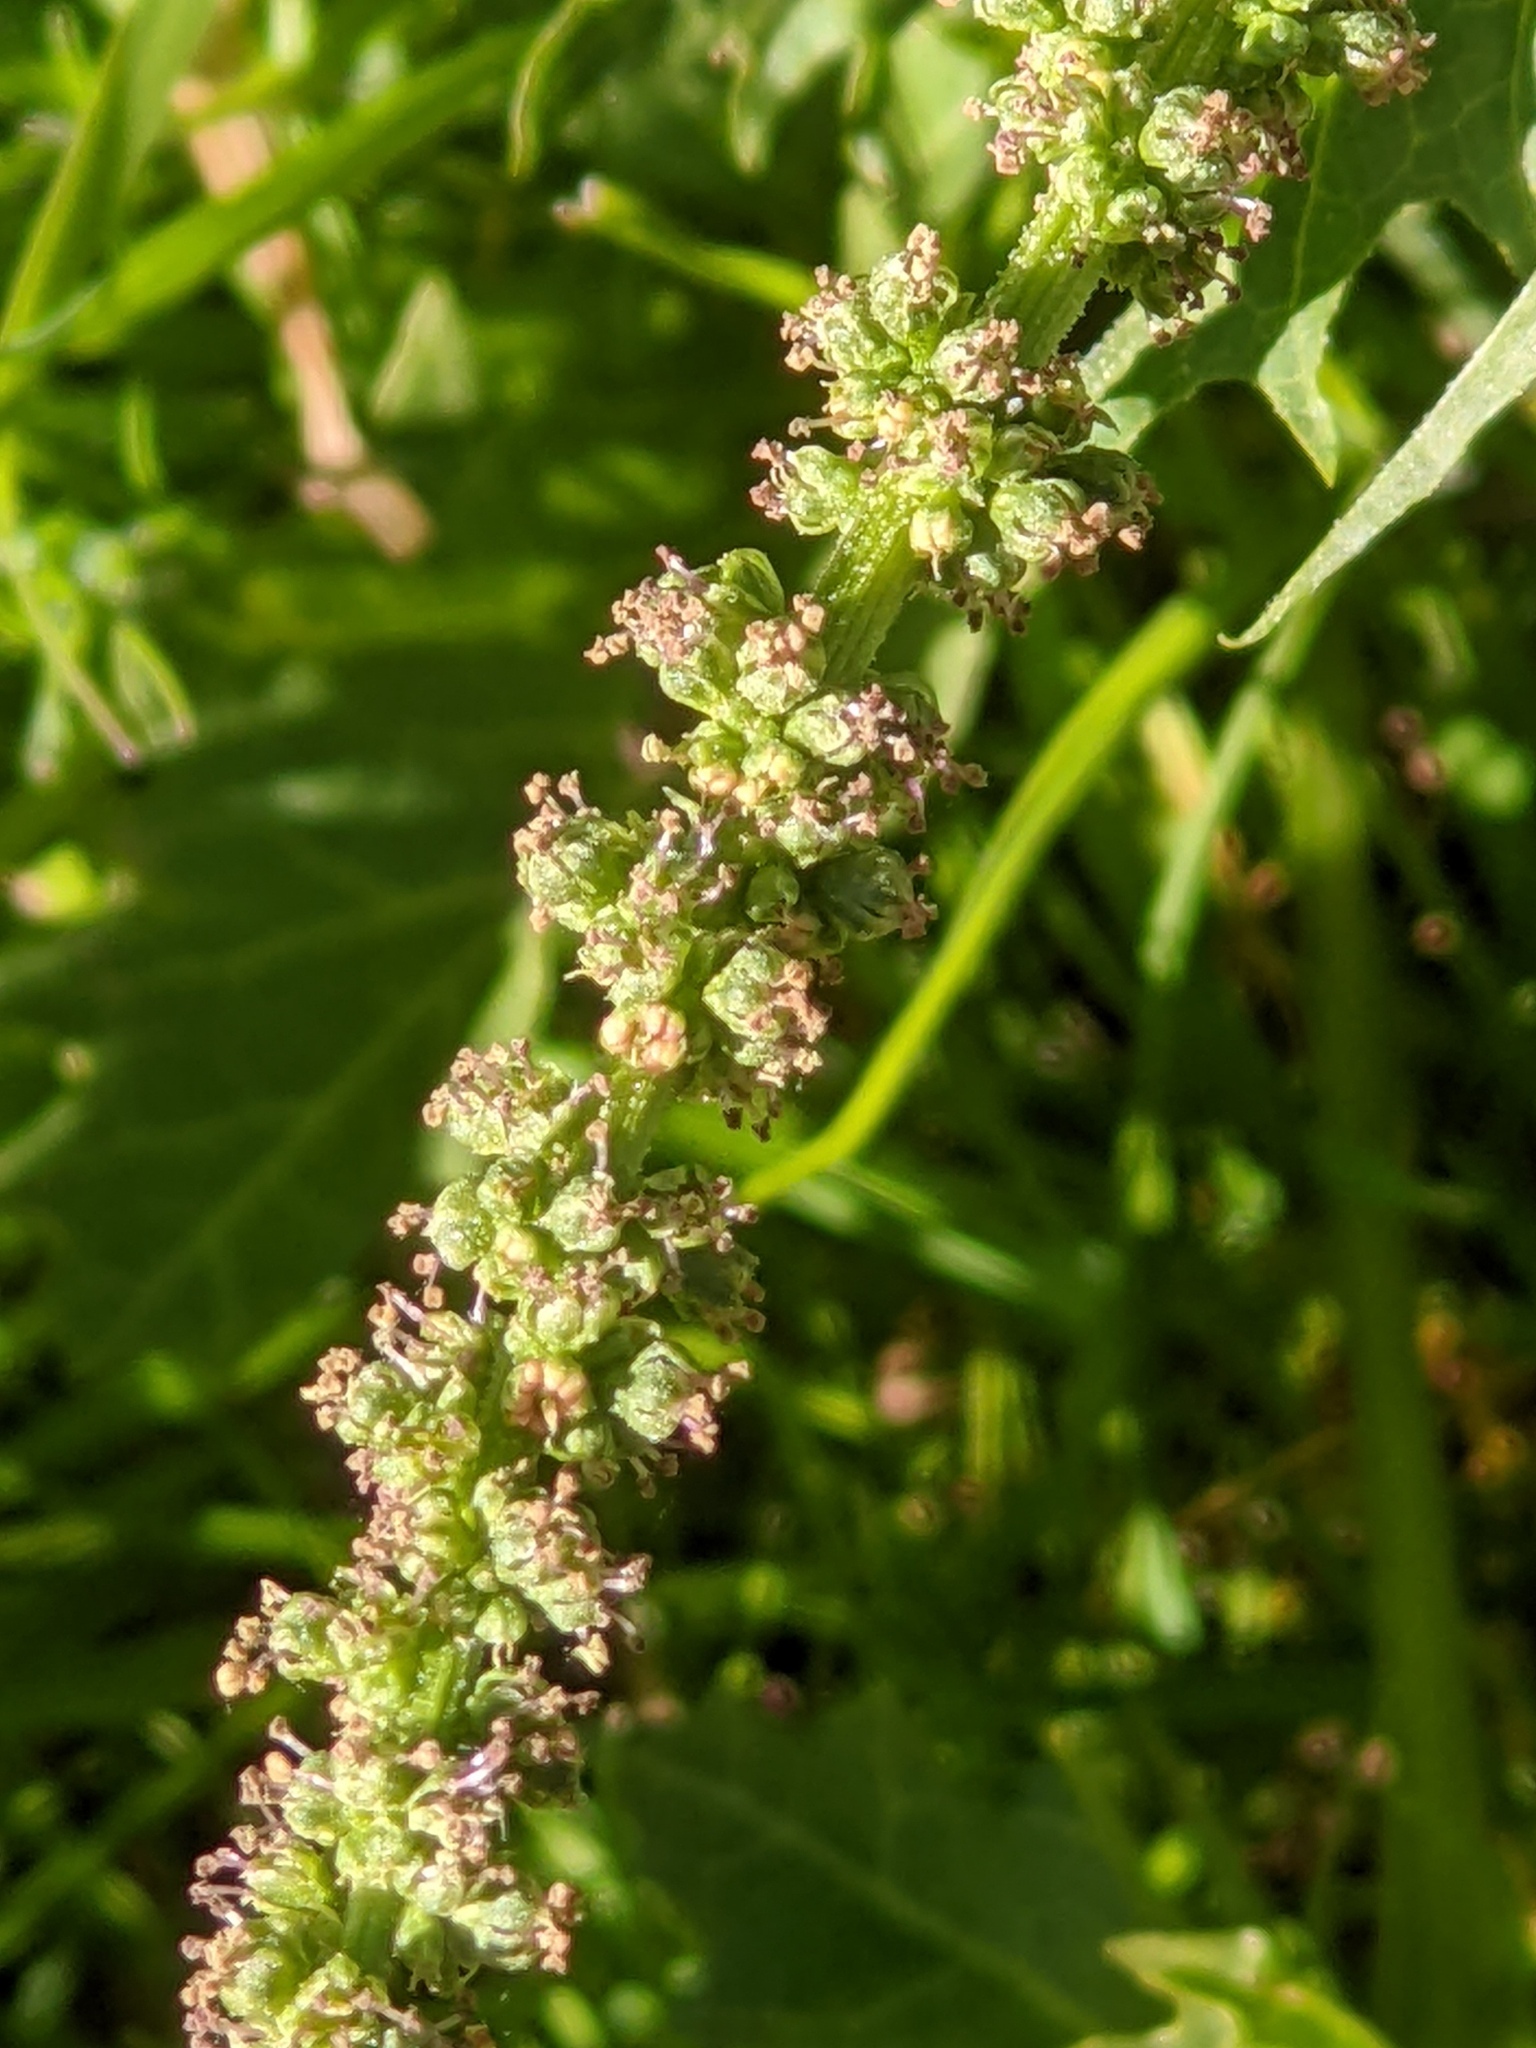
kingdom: Plantae
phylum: Tracheophyta
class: Magnoliopsida
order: Caryophyllales
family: Amaranthaceae
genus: Blitum
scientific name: Blitum californicum
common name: California goosefoot
